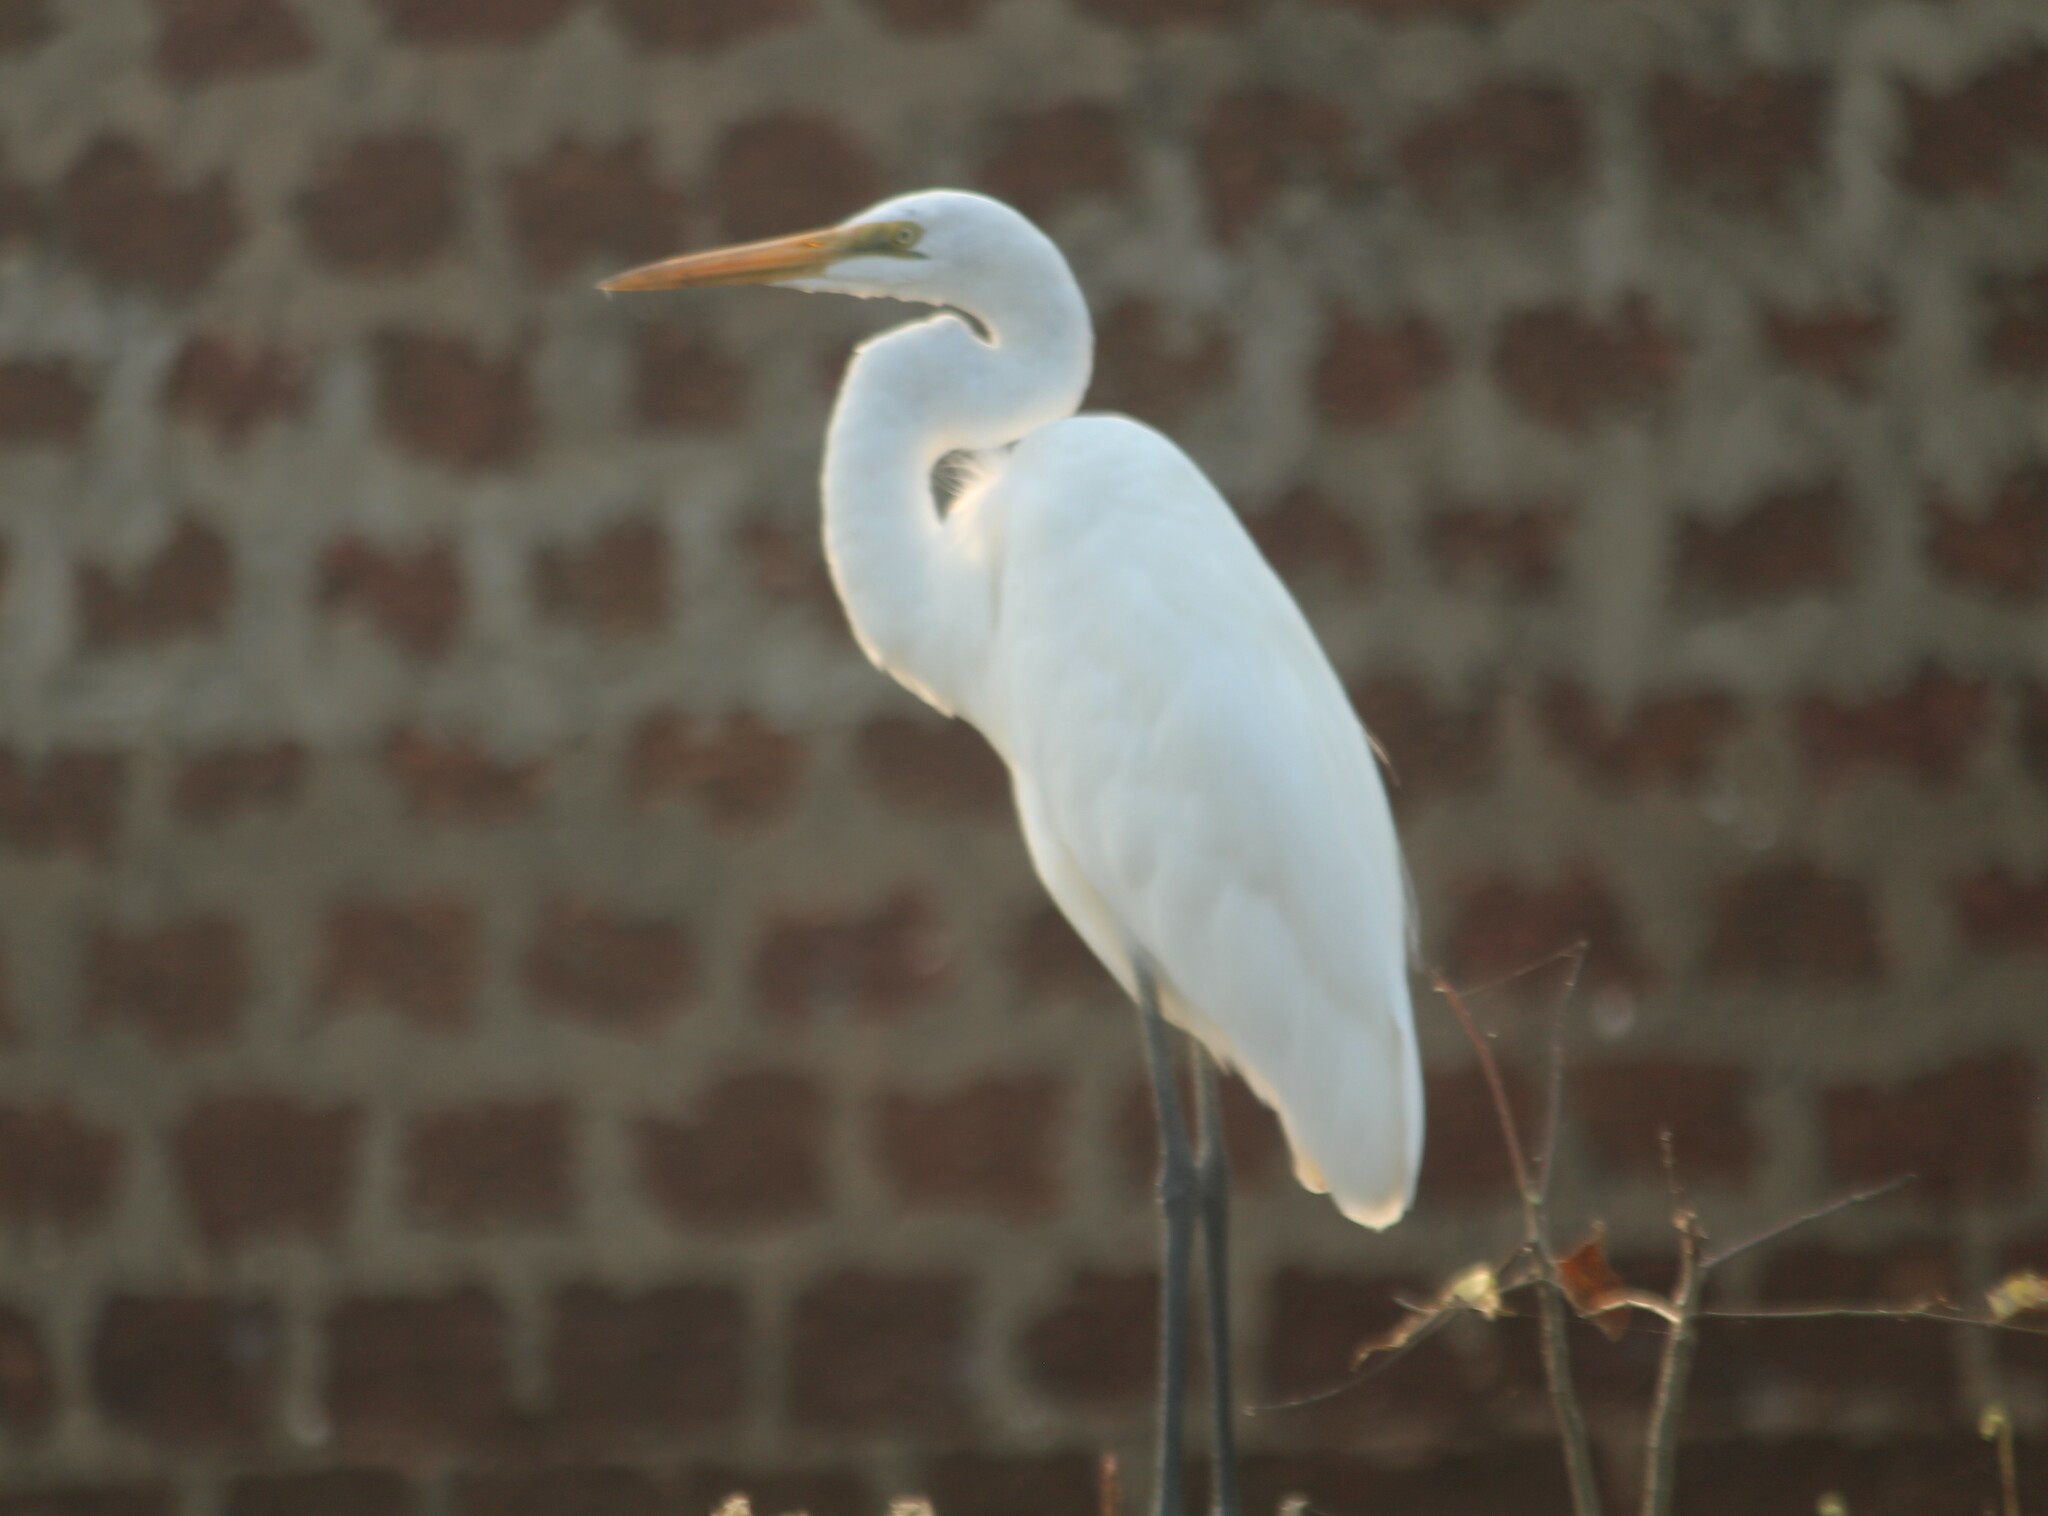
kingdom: Animalia
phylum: Chordata
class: Aves
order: Pelecaniformes
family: Ardeidae
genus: Ardea
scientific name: Ardea alba
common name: Great egret
